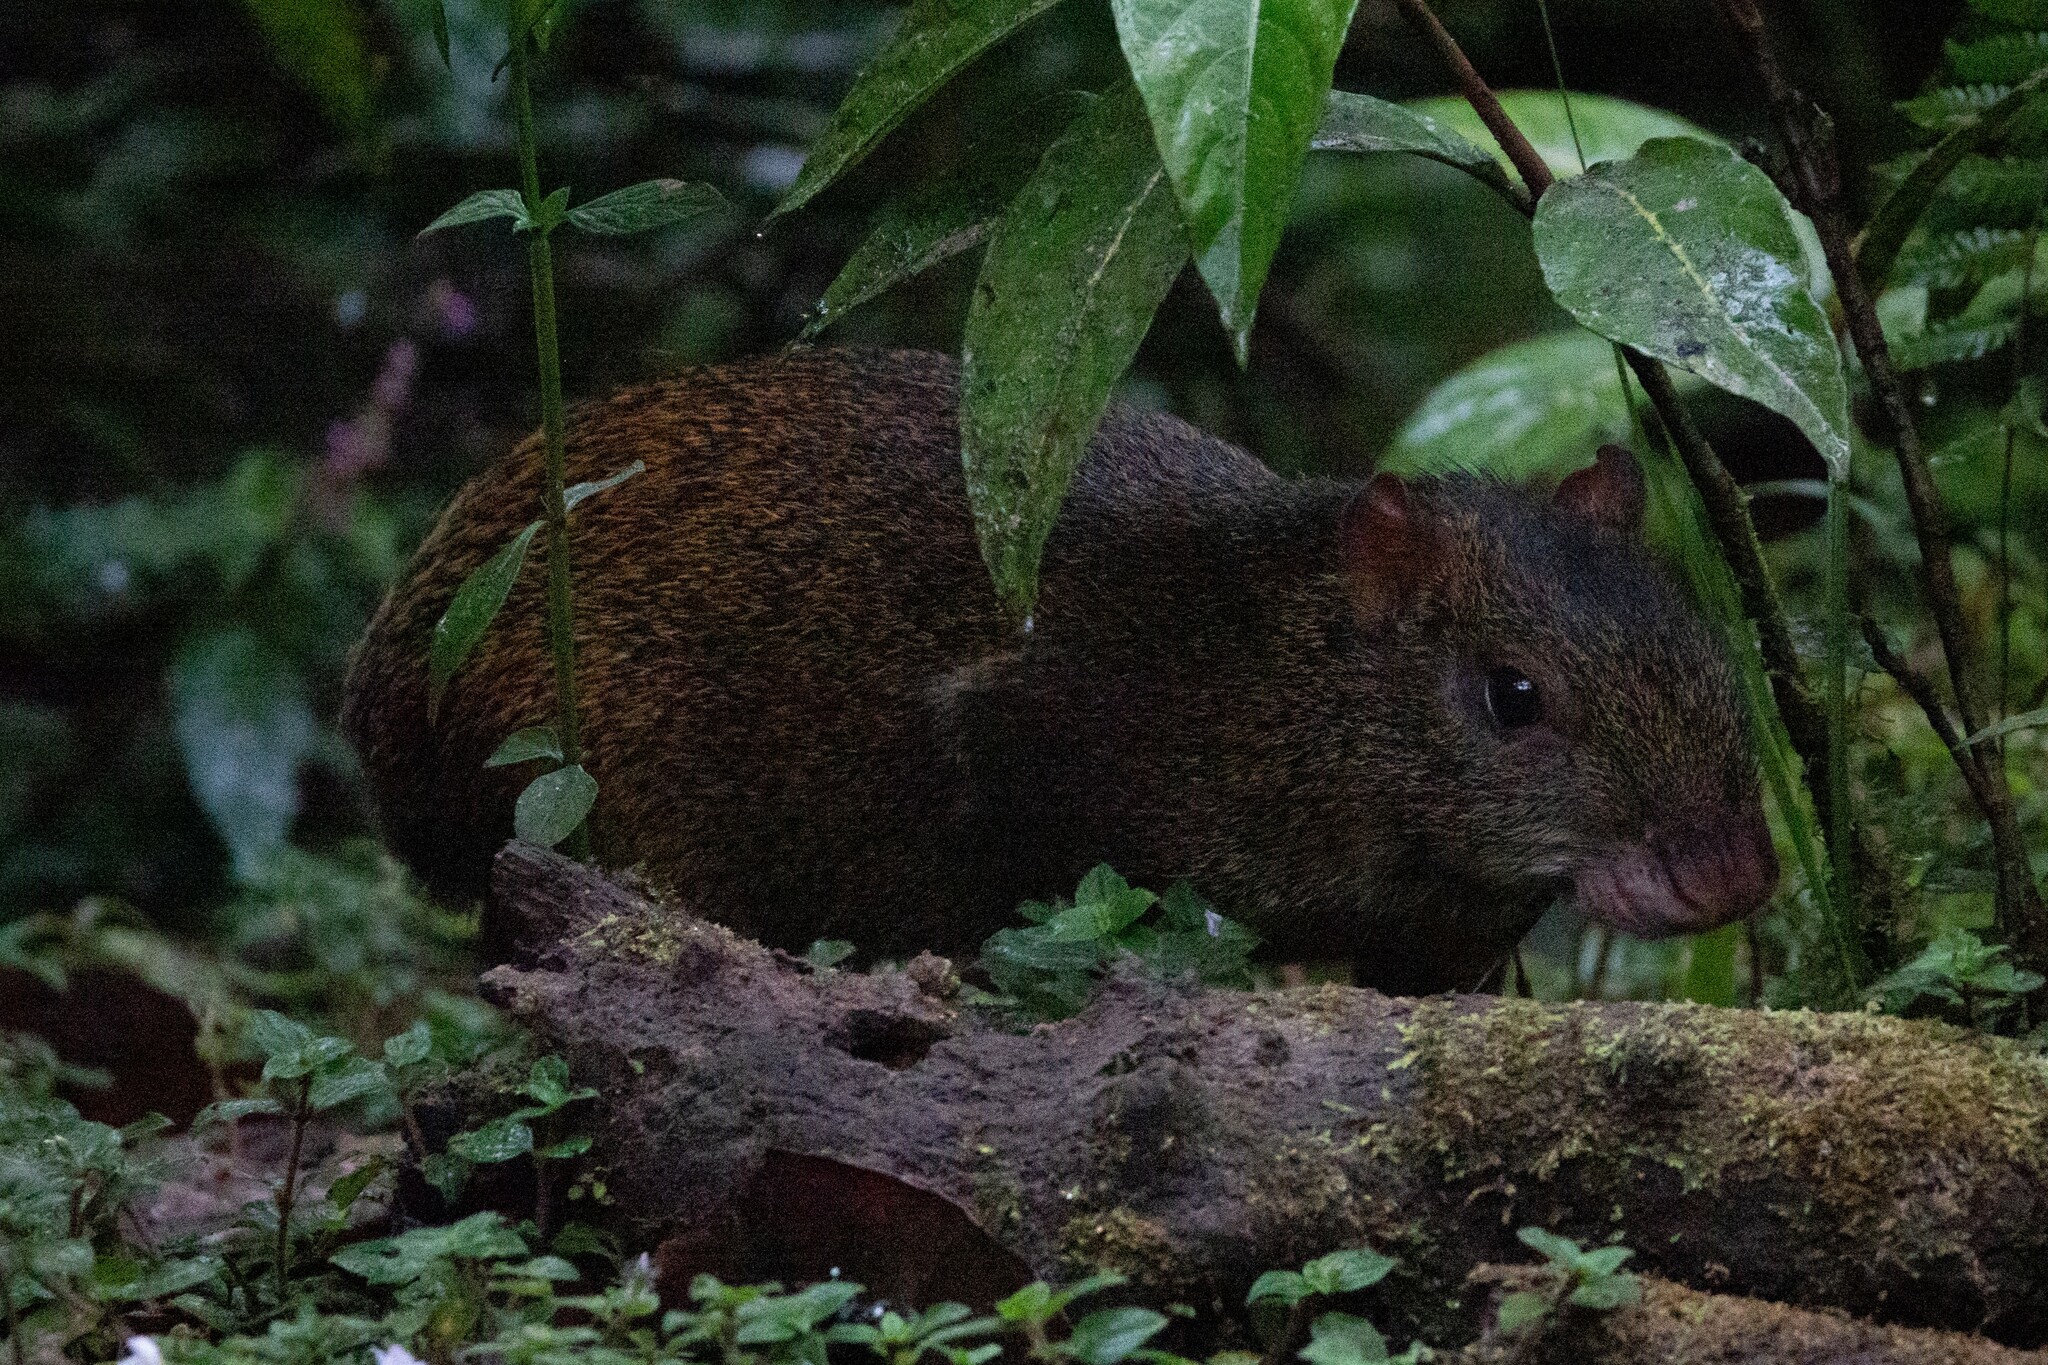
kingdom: Animalia
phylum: Chordata
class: Mammalia
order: Rodentia
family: Dasyproctidae
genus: Dasyprocta
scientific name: Dasyprocta punctata
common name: Central american agouti
